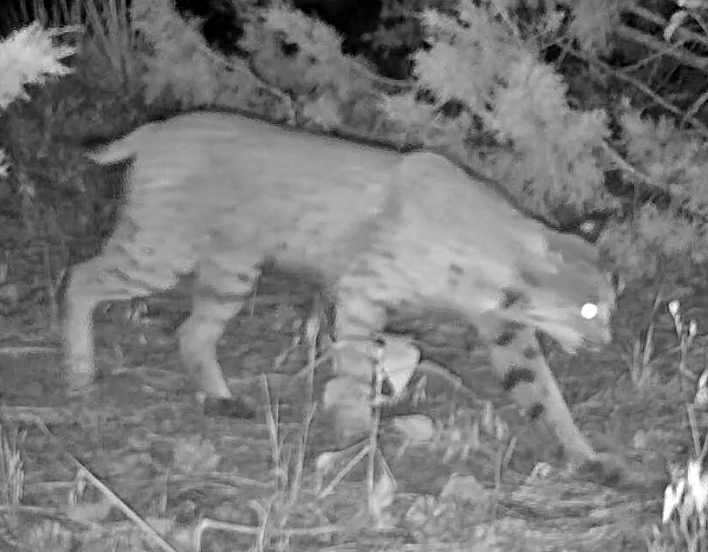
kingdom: Animalia
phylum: Chordata
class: Mammalia
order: Carnivora
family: Felidae
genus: Lynx
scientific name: Lynx rufus
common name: Bobcat
